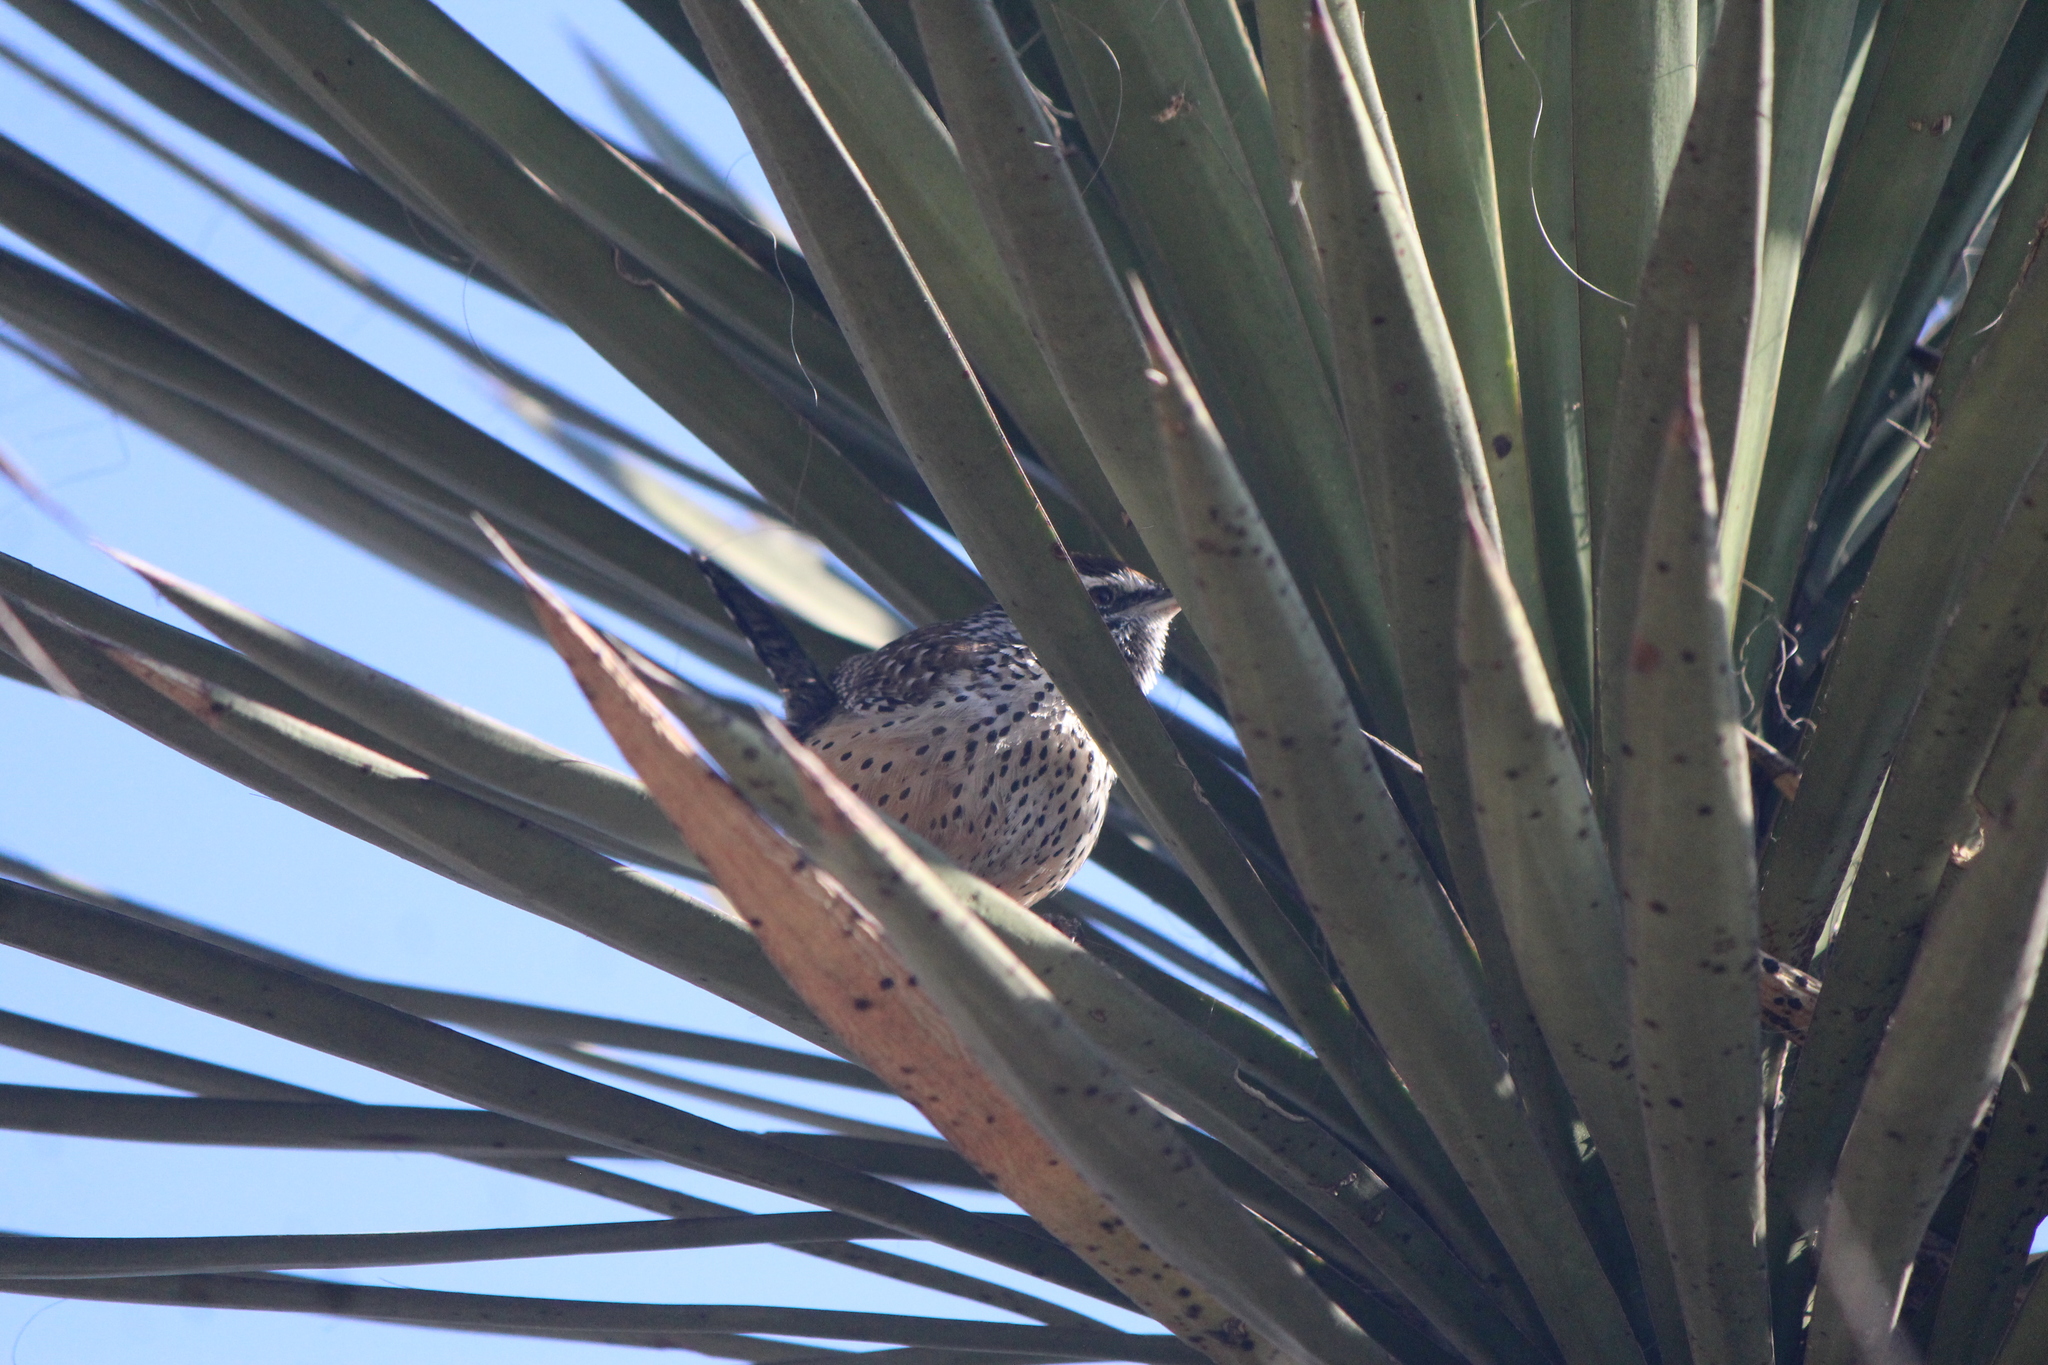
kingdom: Animalia
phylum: Chordata
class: Aves
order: Passeriformes
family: Troglodytidae
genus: Campylorhynchus
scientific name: Campylorhynchus brunneicapillus
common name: Cactus wren
